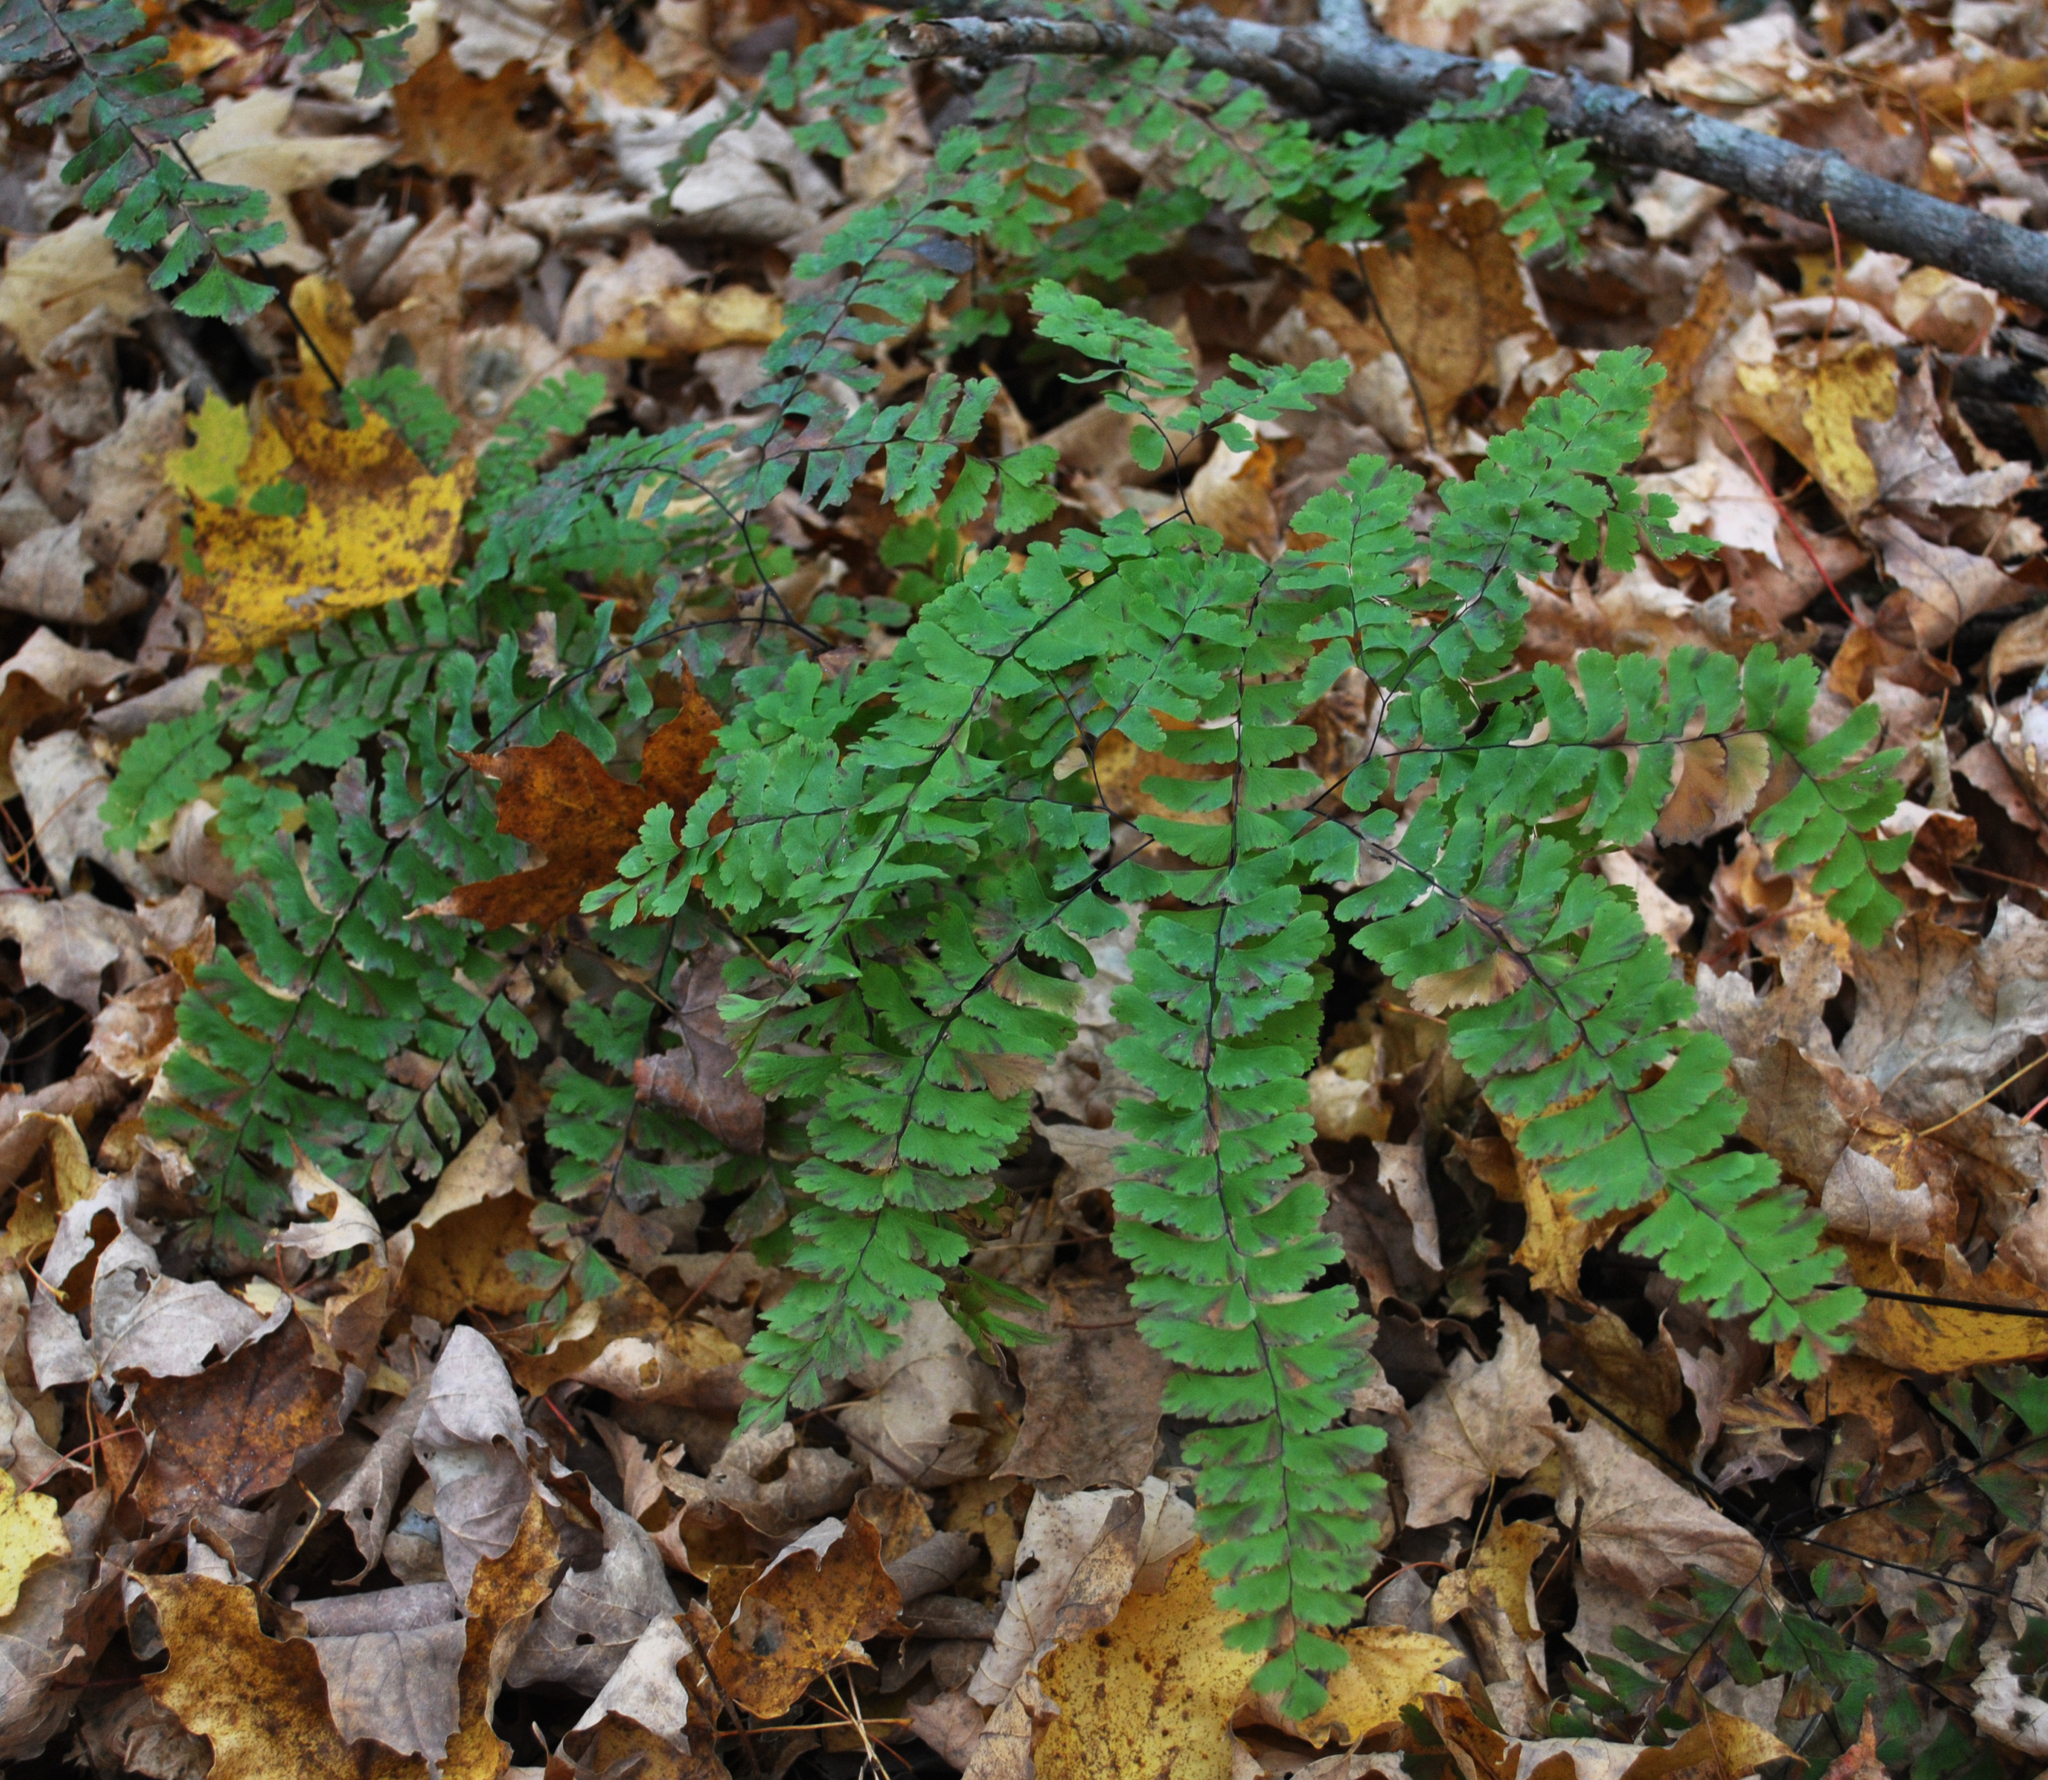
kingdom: Plantae
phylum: Tracheophyta
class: Polypodiopsida
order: Polypodiales
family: Pteridaceae
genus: Adiantum
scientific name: Adiantum pedatum
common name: Five-finger fern
